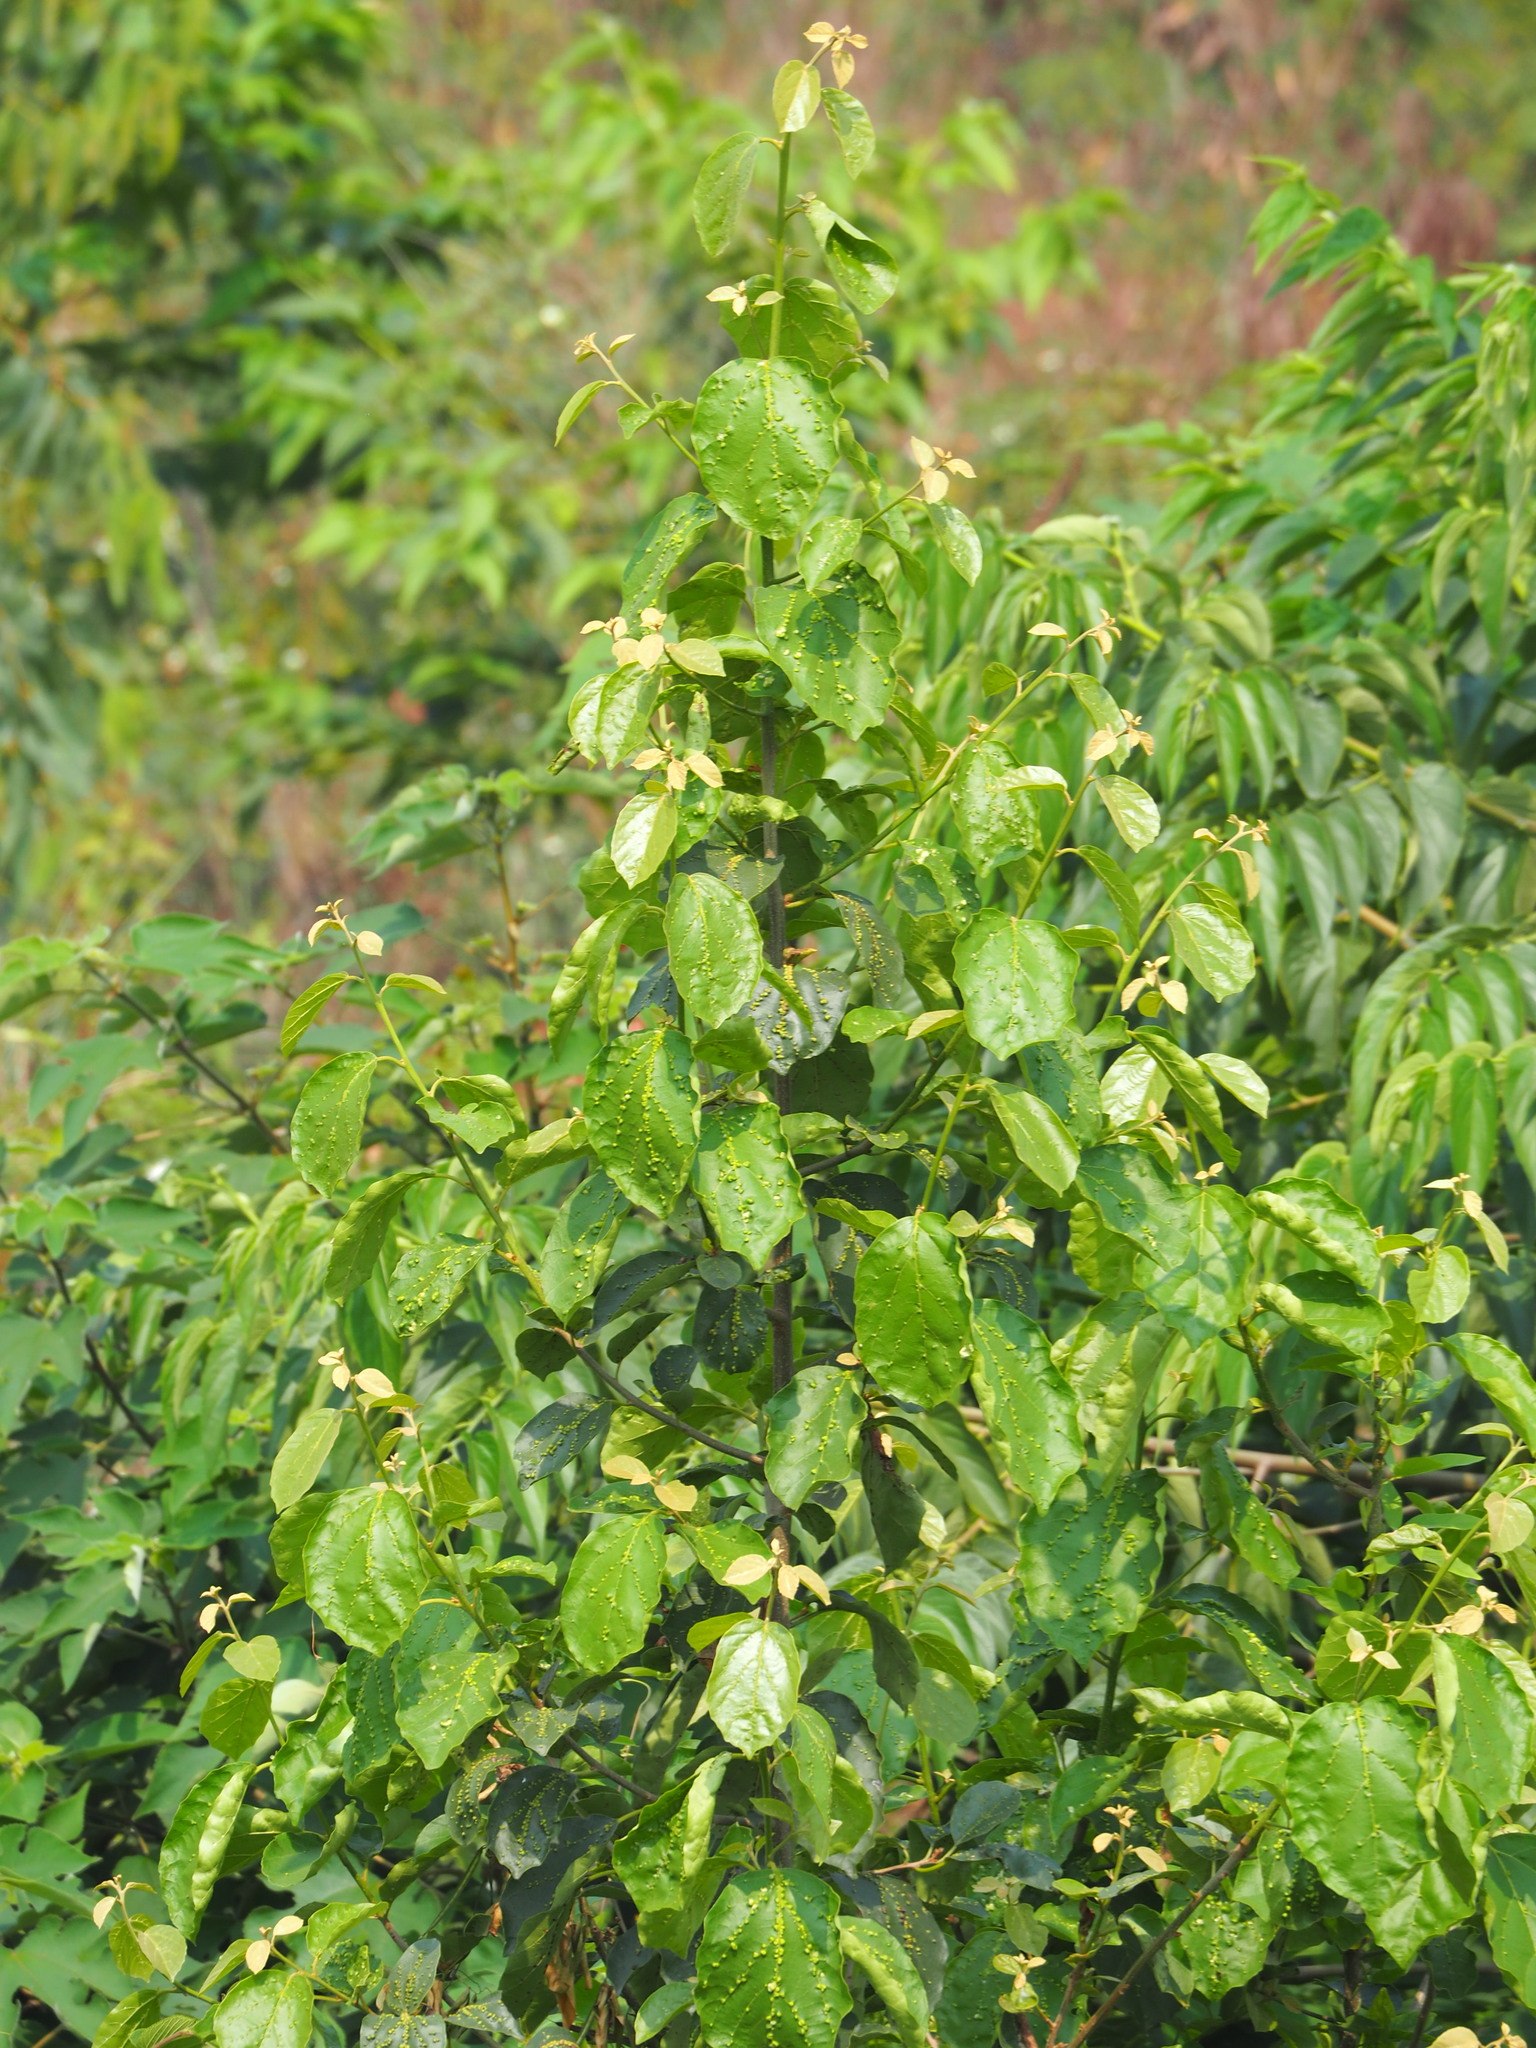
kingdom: Plantae
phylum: Tracheophyta
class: Magnoliopsida
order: Boraginales
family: Cordiaceae
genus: Cordia
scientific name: Cordia dichotoma
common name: Fragrant manjack
